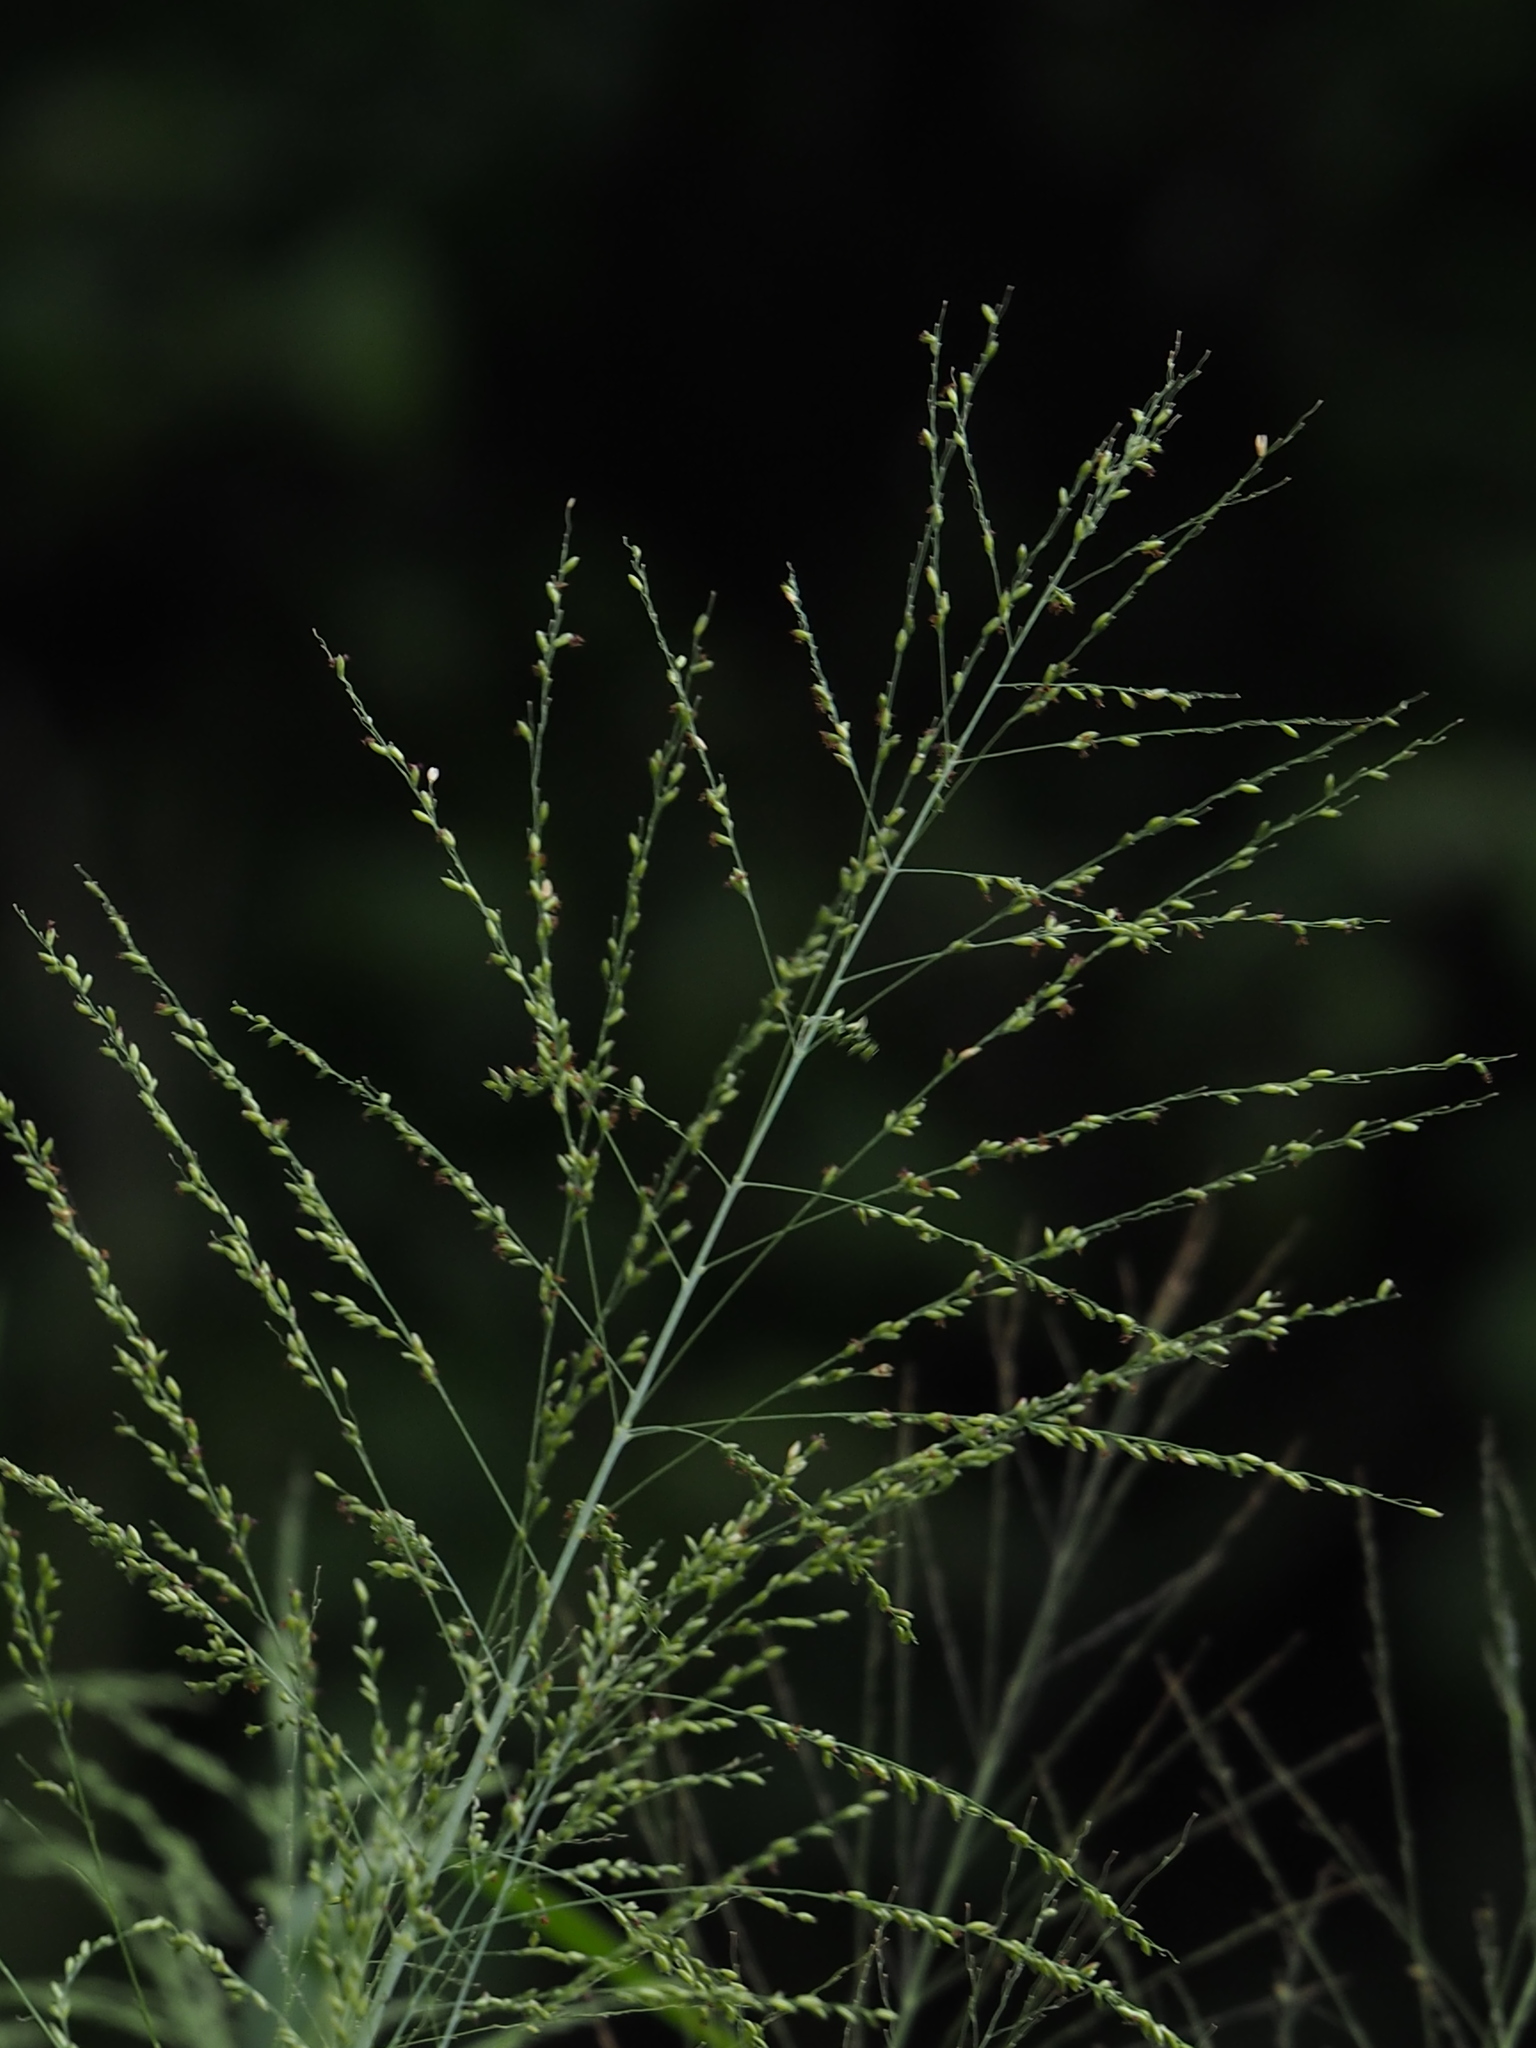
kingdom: Plantae
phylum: Tracheophyta
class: Liliopsida
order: Poales
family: Poaceae
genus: Megathyrsus
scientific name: Megathyrsus maximus
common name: Guineagrass
